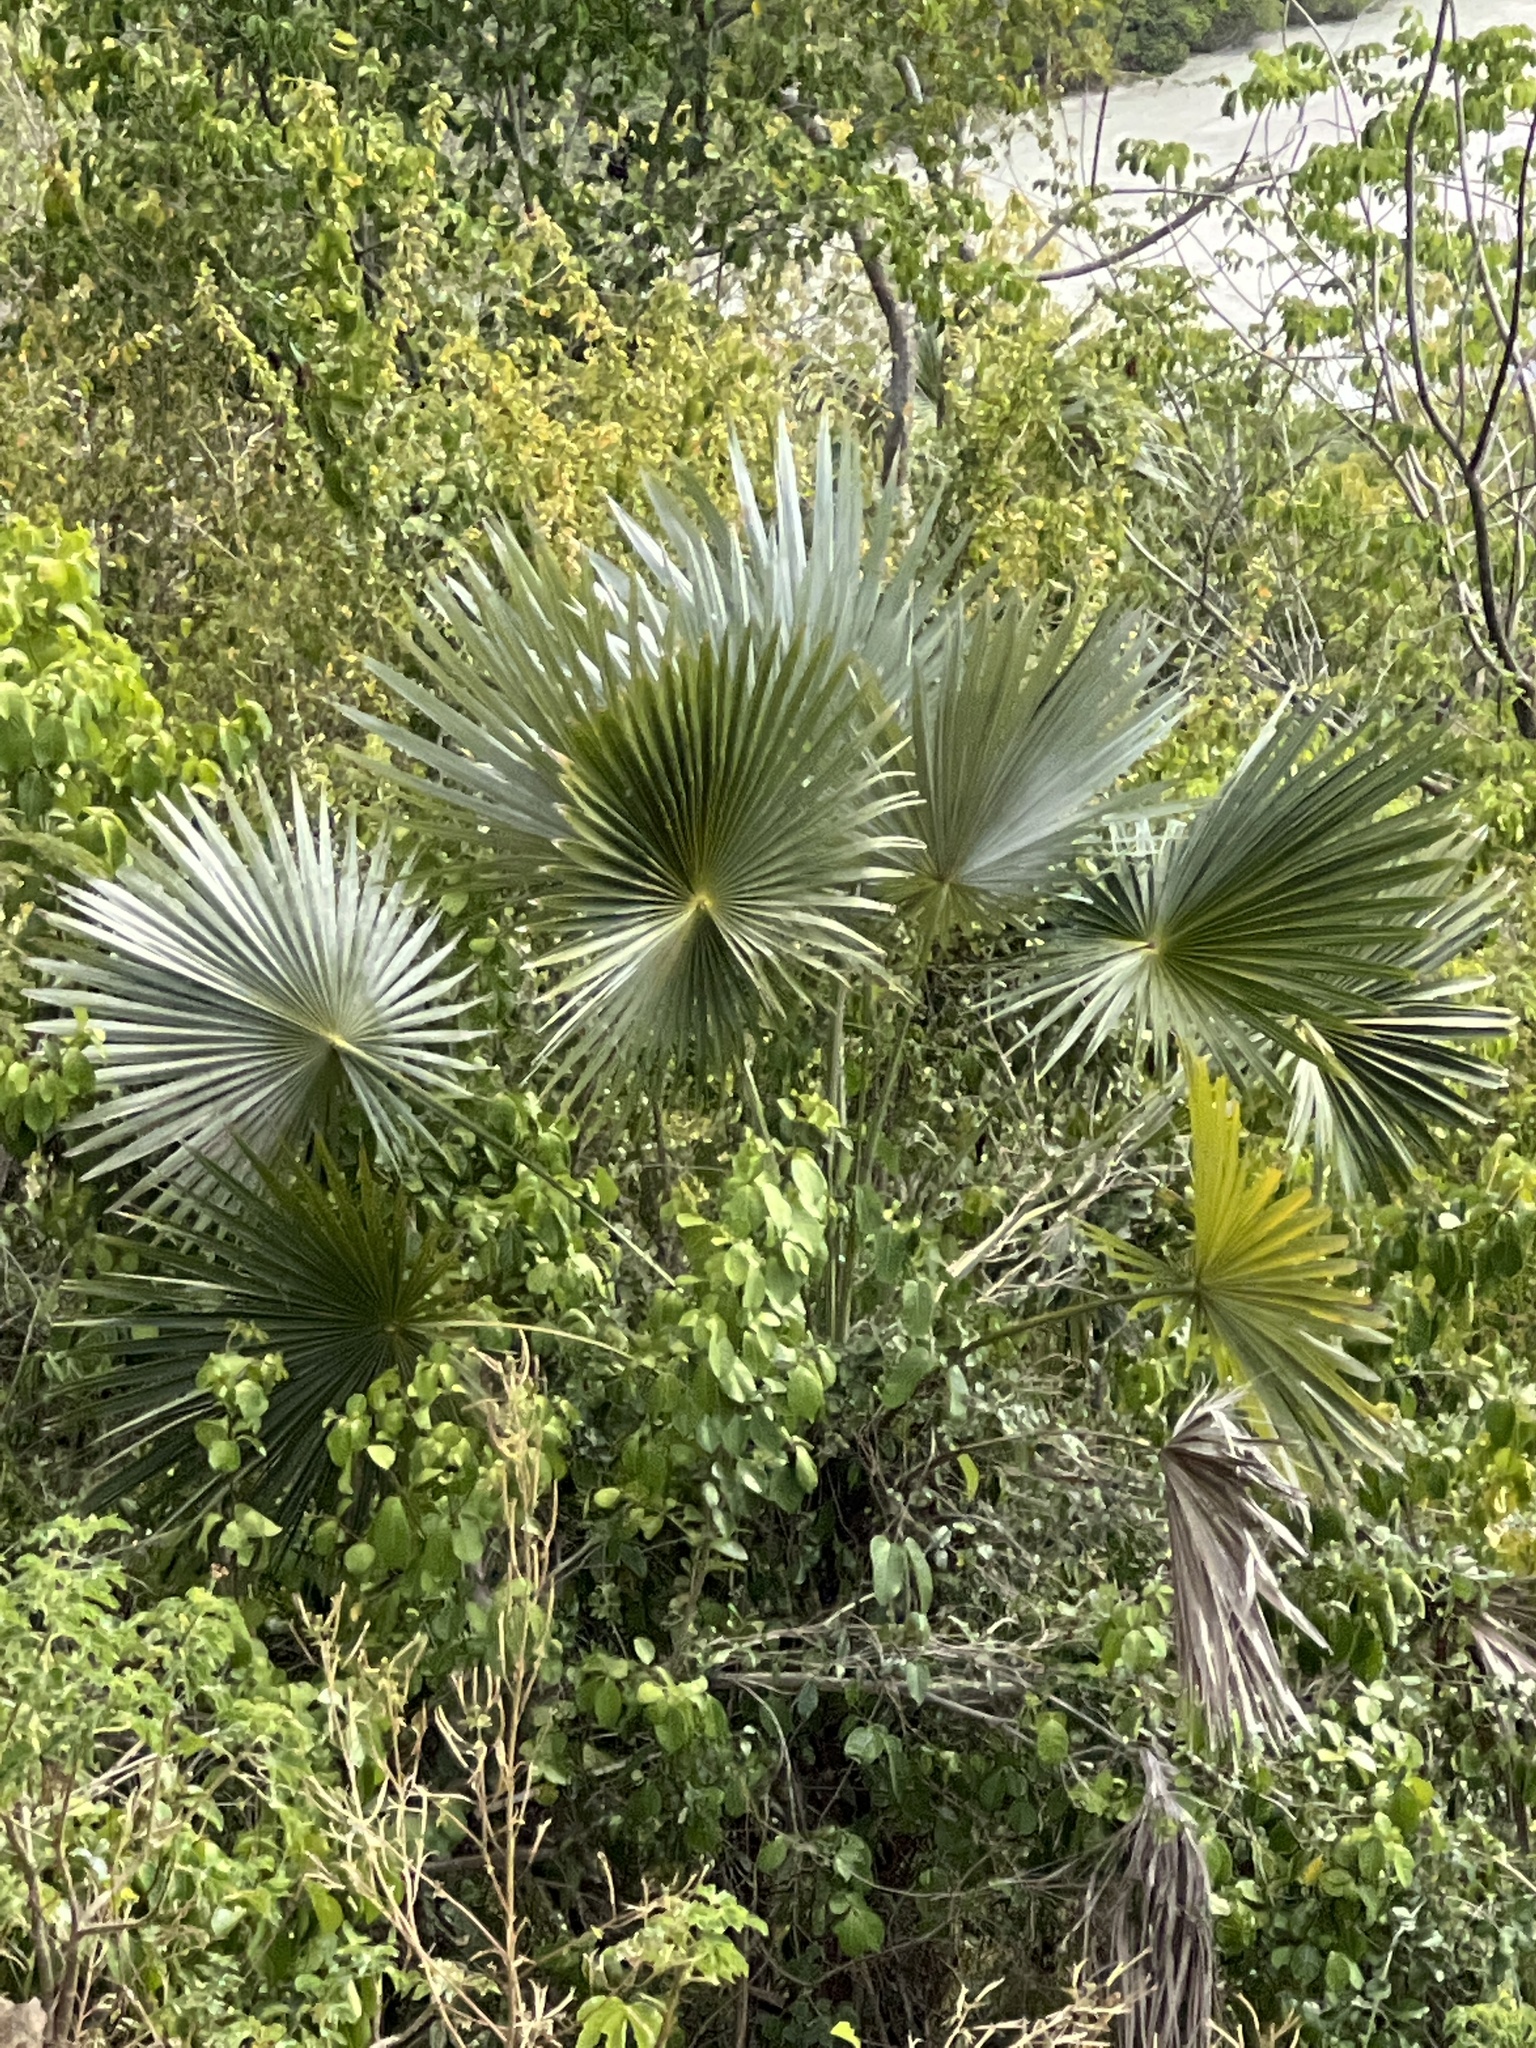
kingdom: Plantae
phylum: Tracheophyta
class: Liliopsida
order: Arecales
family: Arecaceae
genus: Coccothrinax
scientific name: Coccothrinax alta
